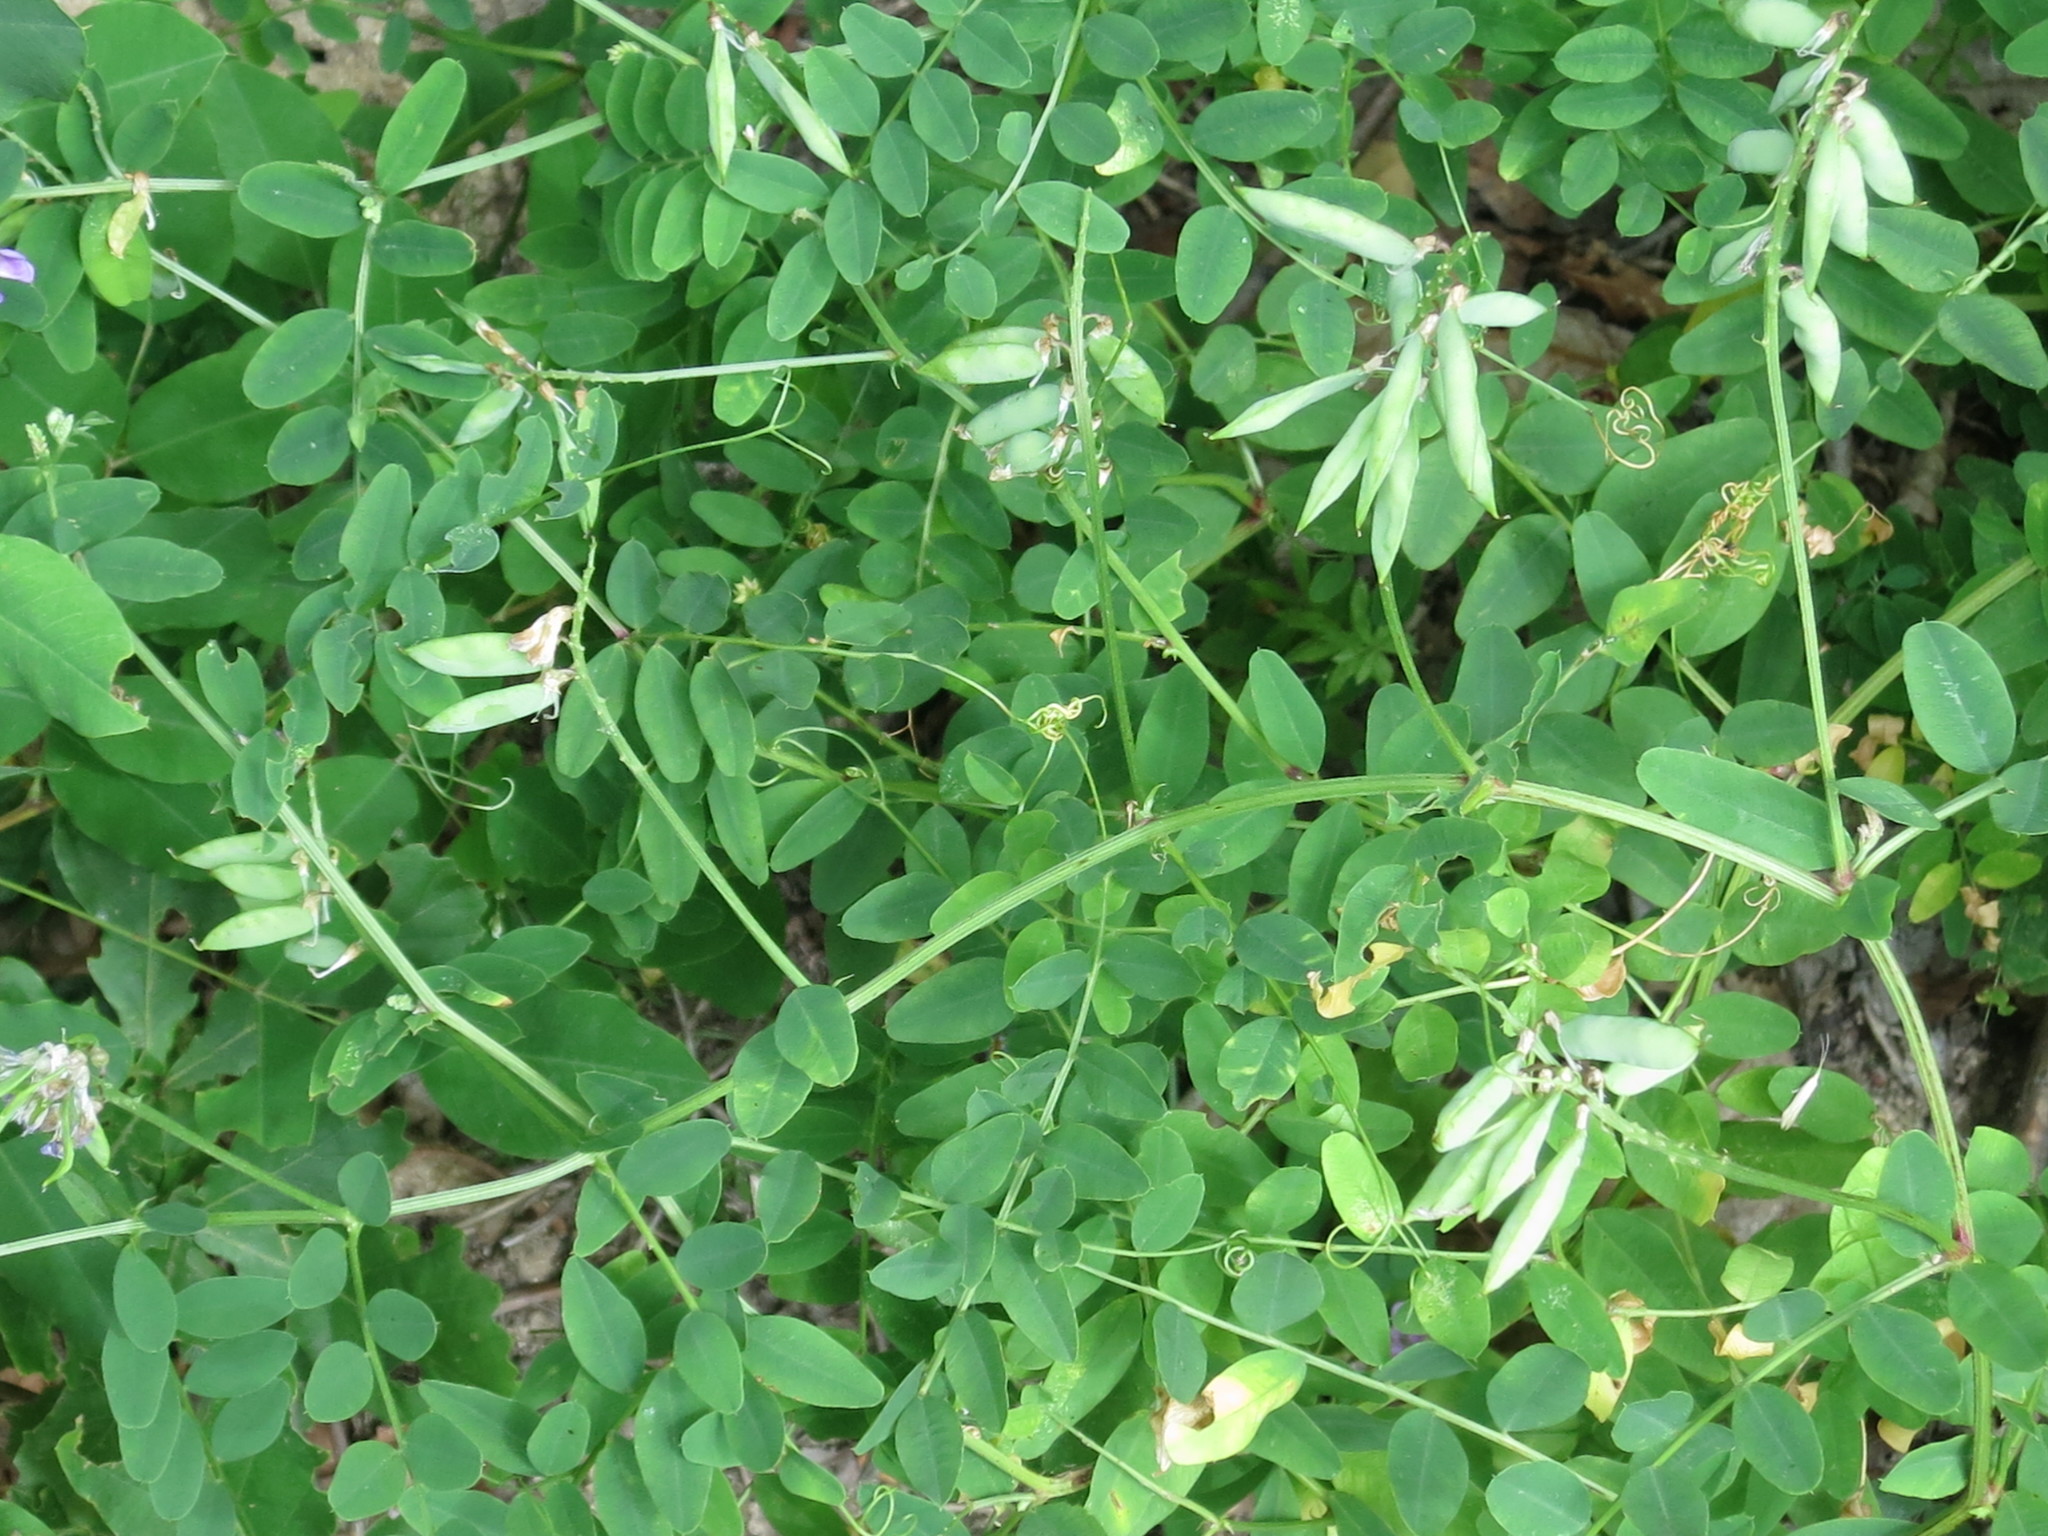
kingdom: Plantae
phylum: Tracheophyta
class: Magnoliopsida
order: Fabales
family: Fabaceae
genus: Vicia
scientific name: Vicia amurensis
